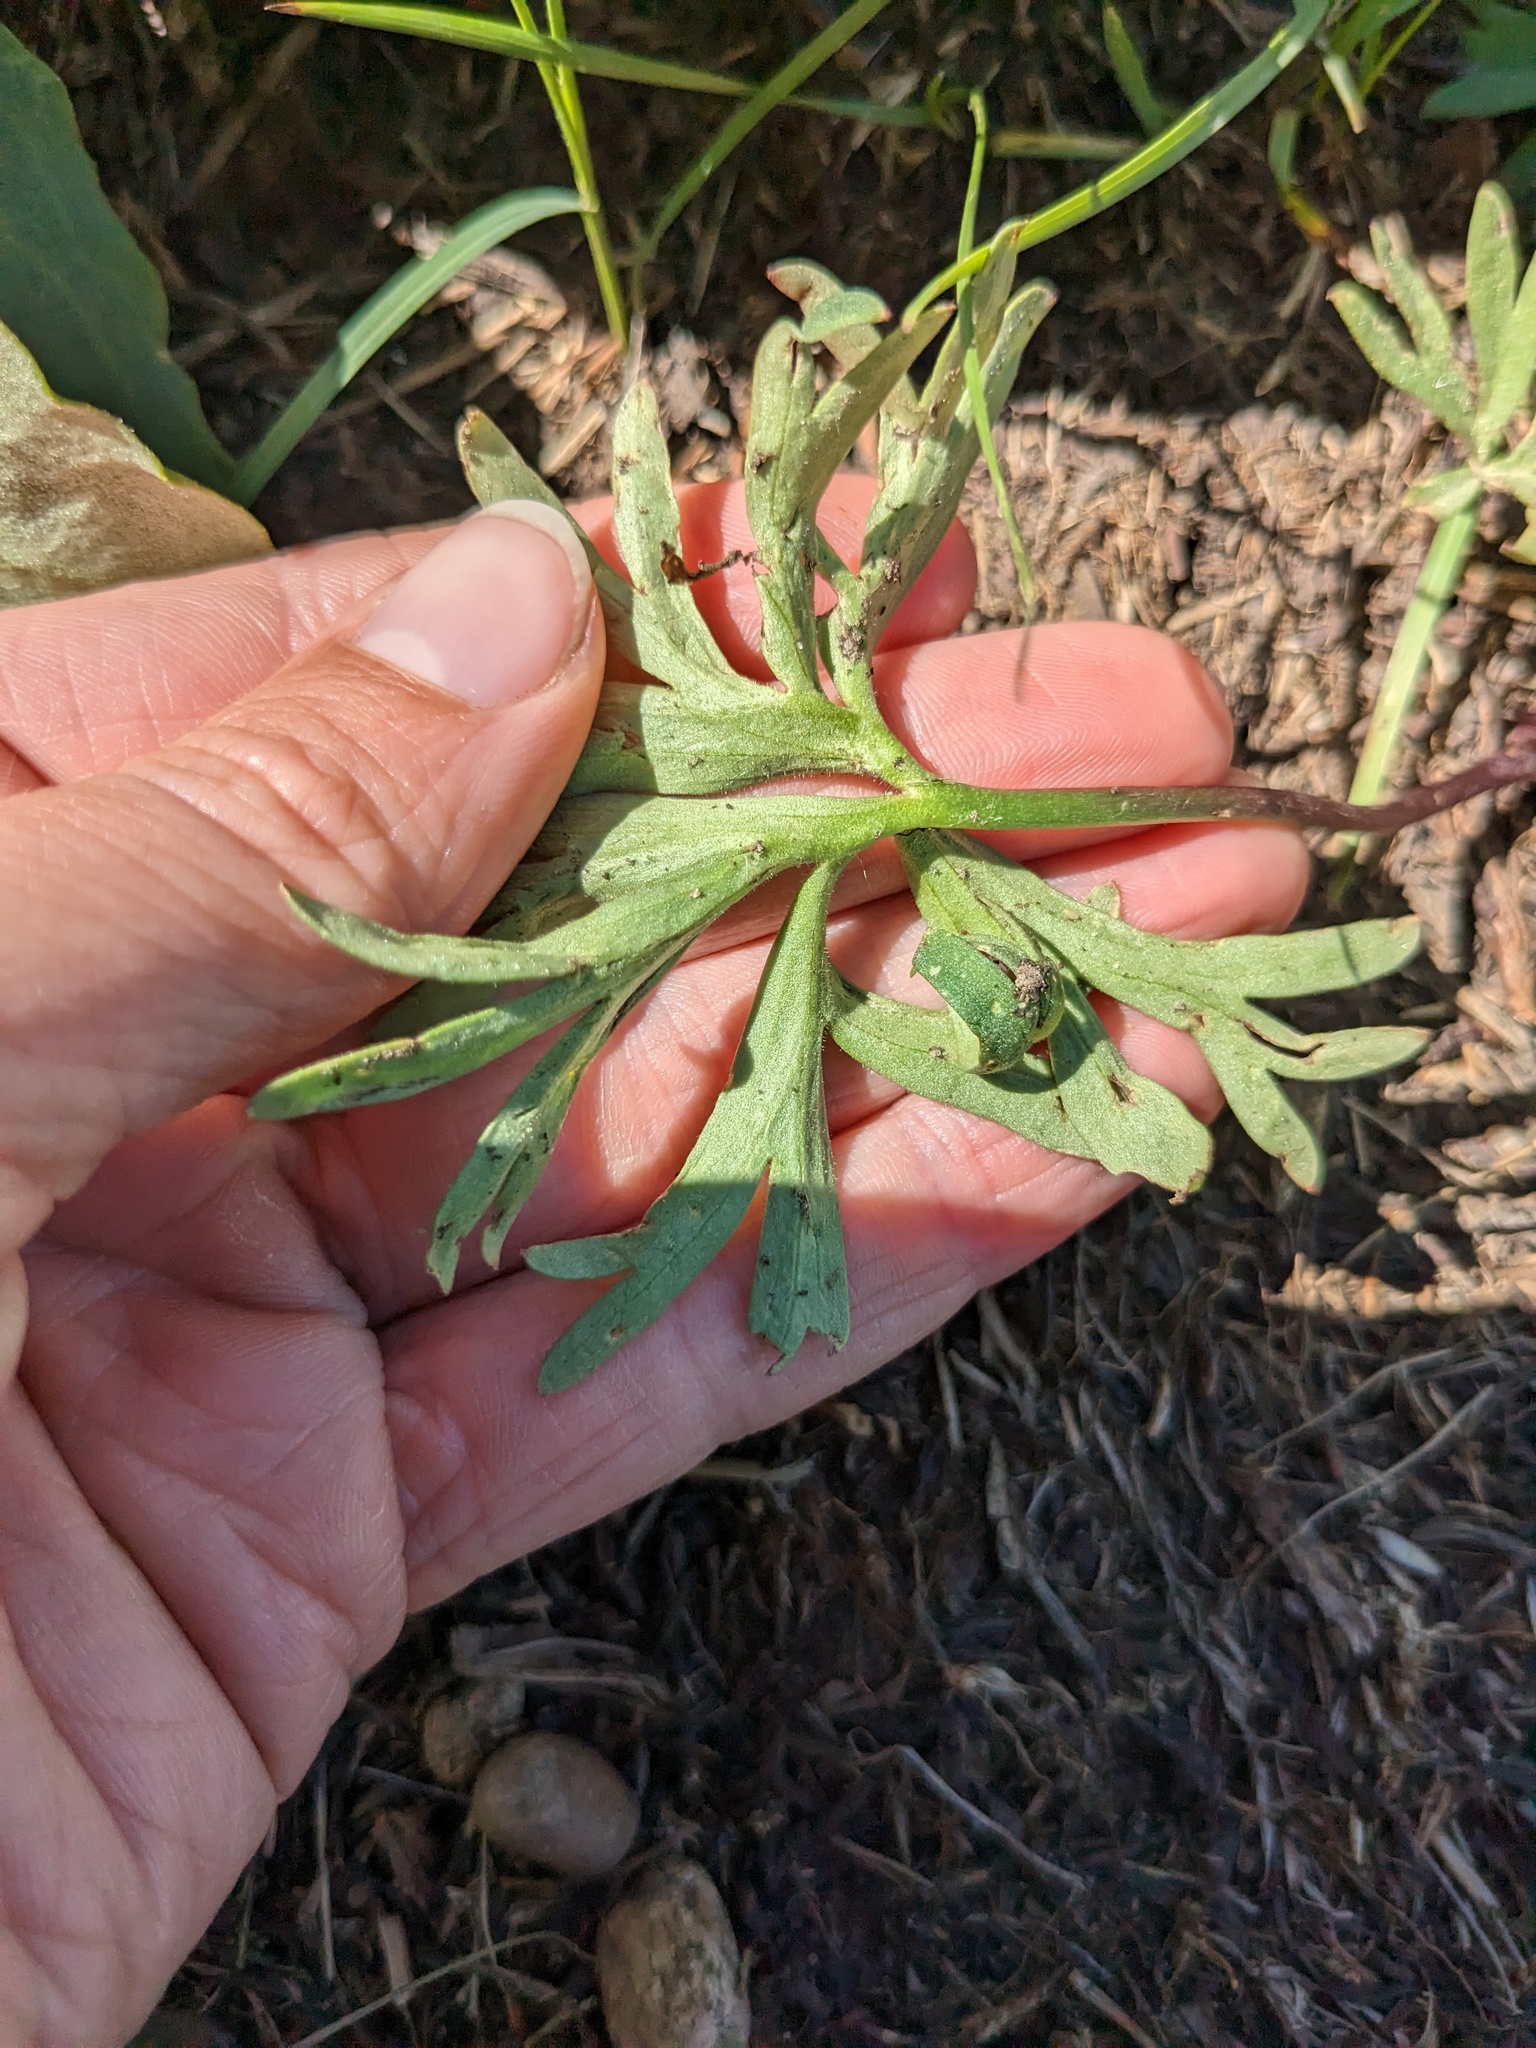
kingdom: Plantae
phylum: Tracheophyta
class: Magnoliopsida
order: Ranunculales
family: Ranunculaceae
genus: Delphinium
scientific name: Delphinium bicolor
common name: Low larkspur
